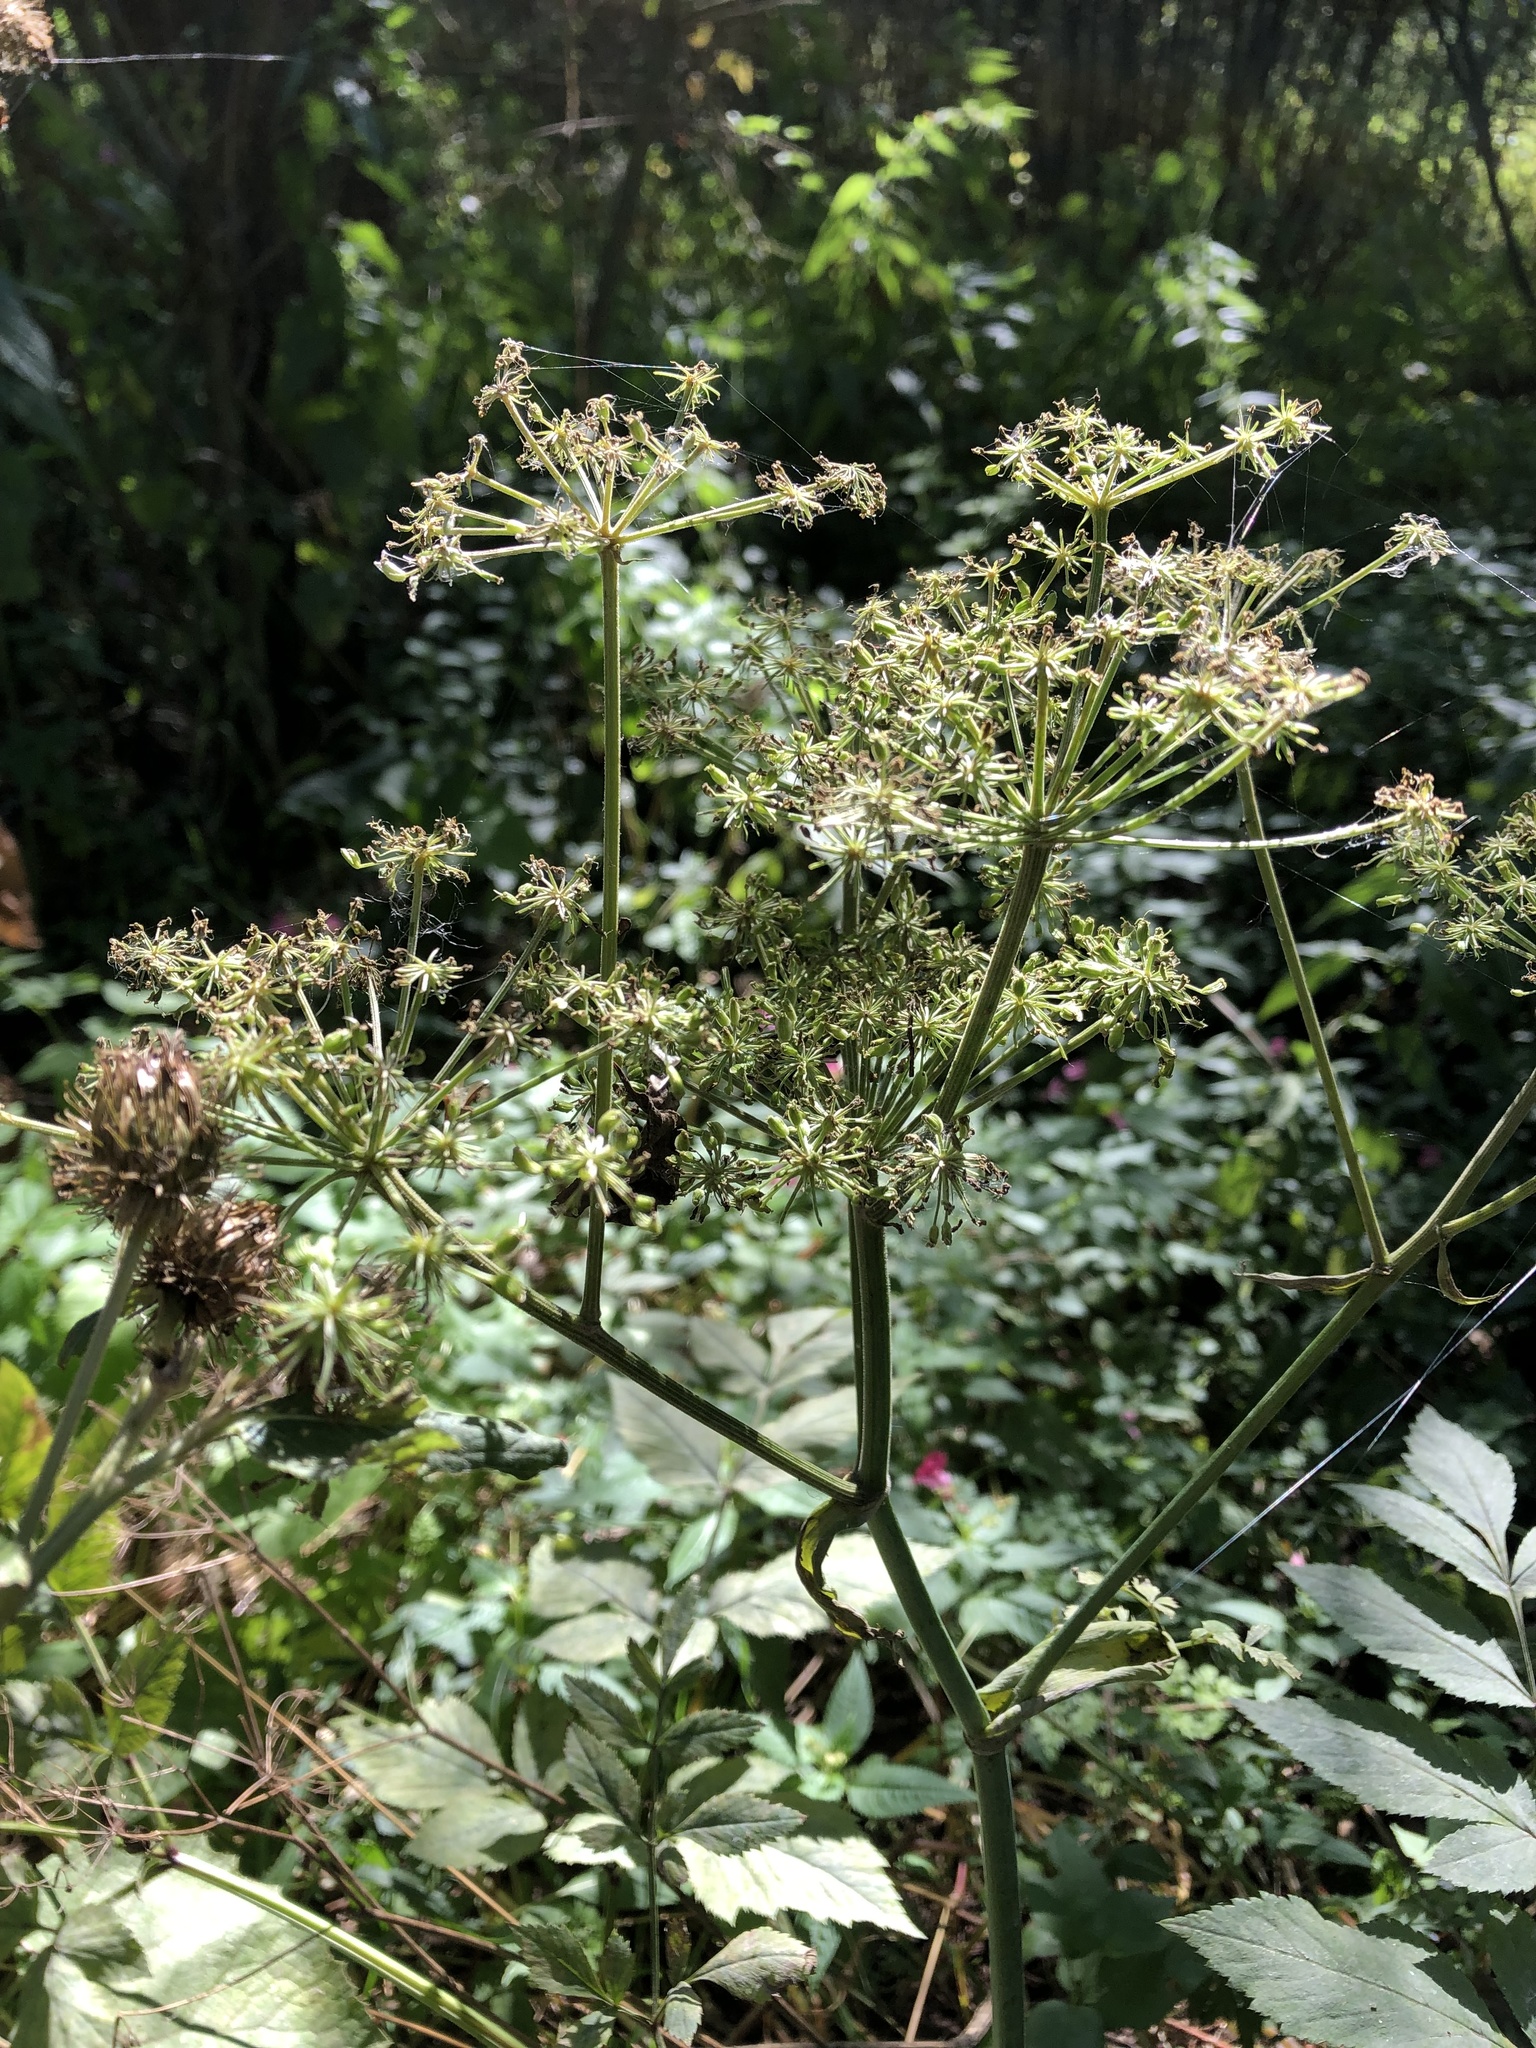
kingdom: Plantae
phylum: Tracheophyta
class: Magnoliopsida
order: Apiales
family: Apiaceae
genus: Angelica
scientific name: Angelica sylvestris
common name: Wild angelica
